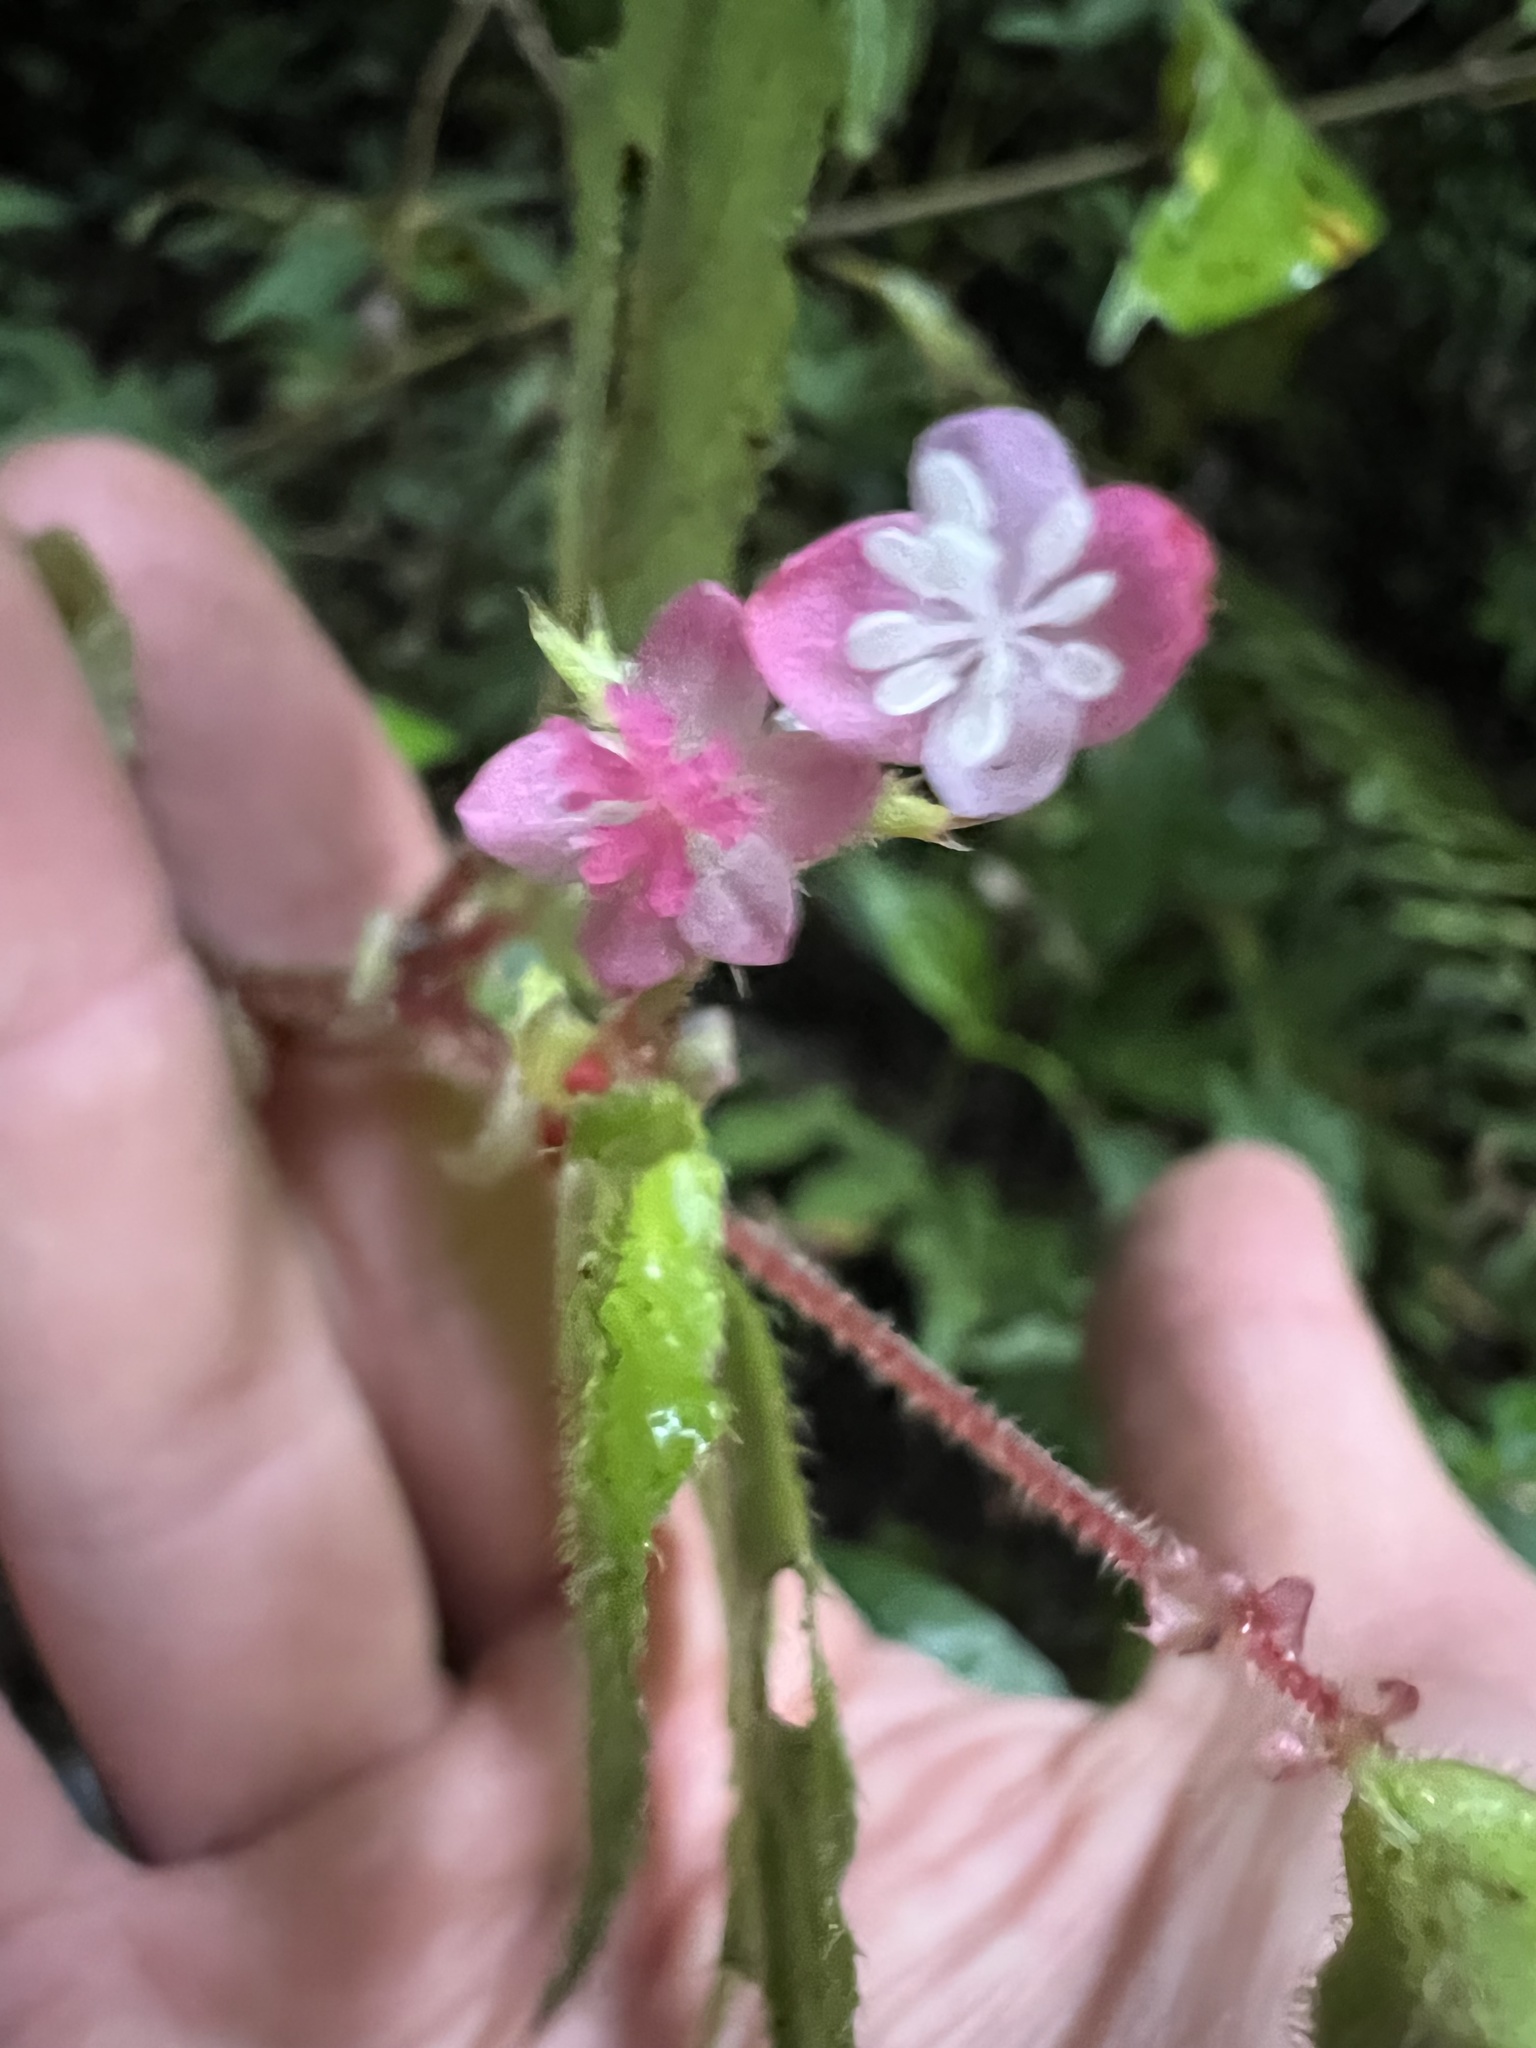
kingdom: Plantae
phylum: Tracheophyta
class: Magnoliopsida
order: Cucurbitales
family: Begoniaceae
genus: Begonia
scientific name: Begonia urticae
